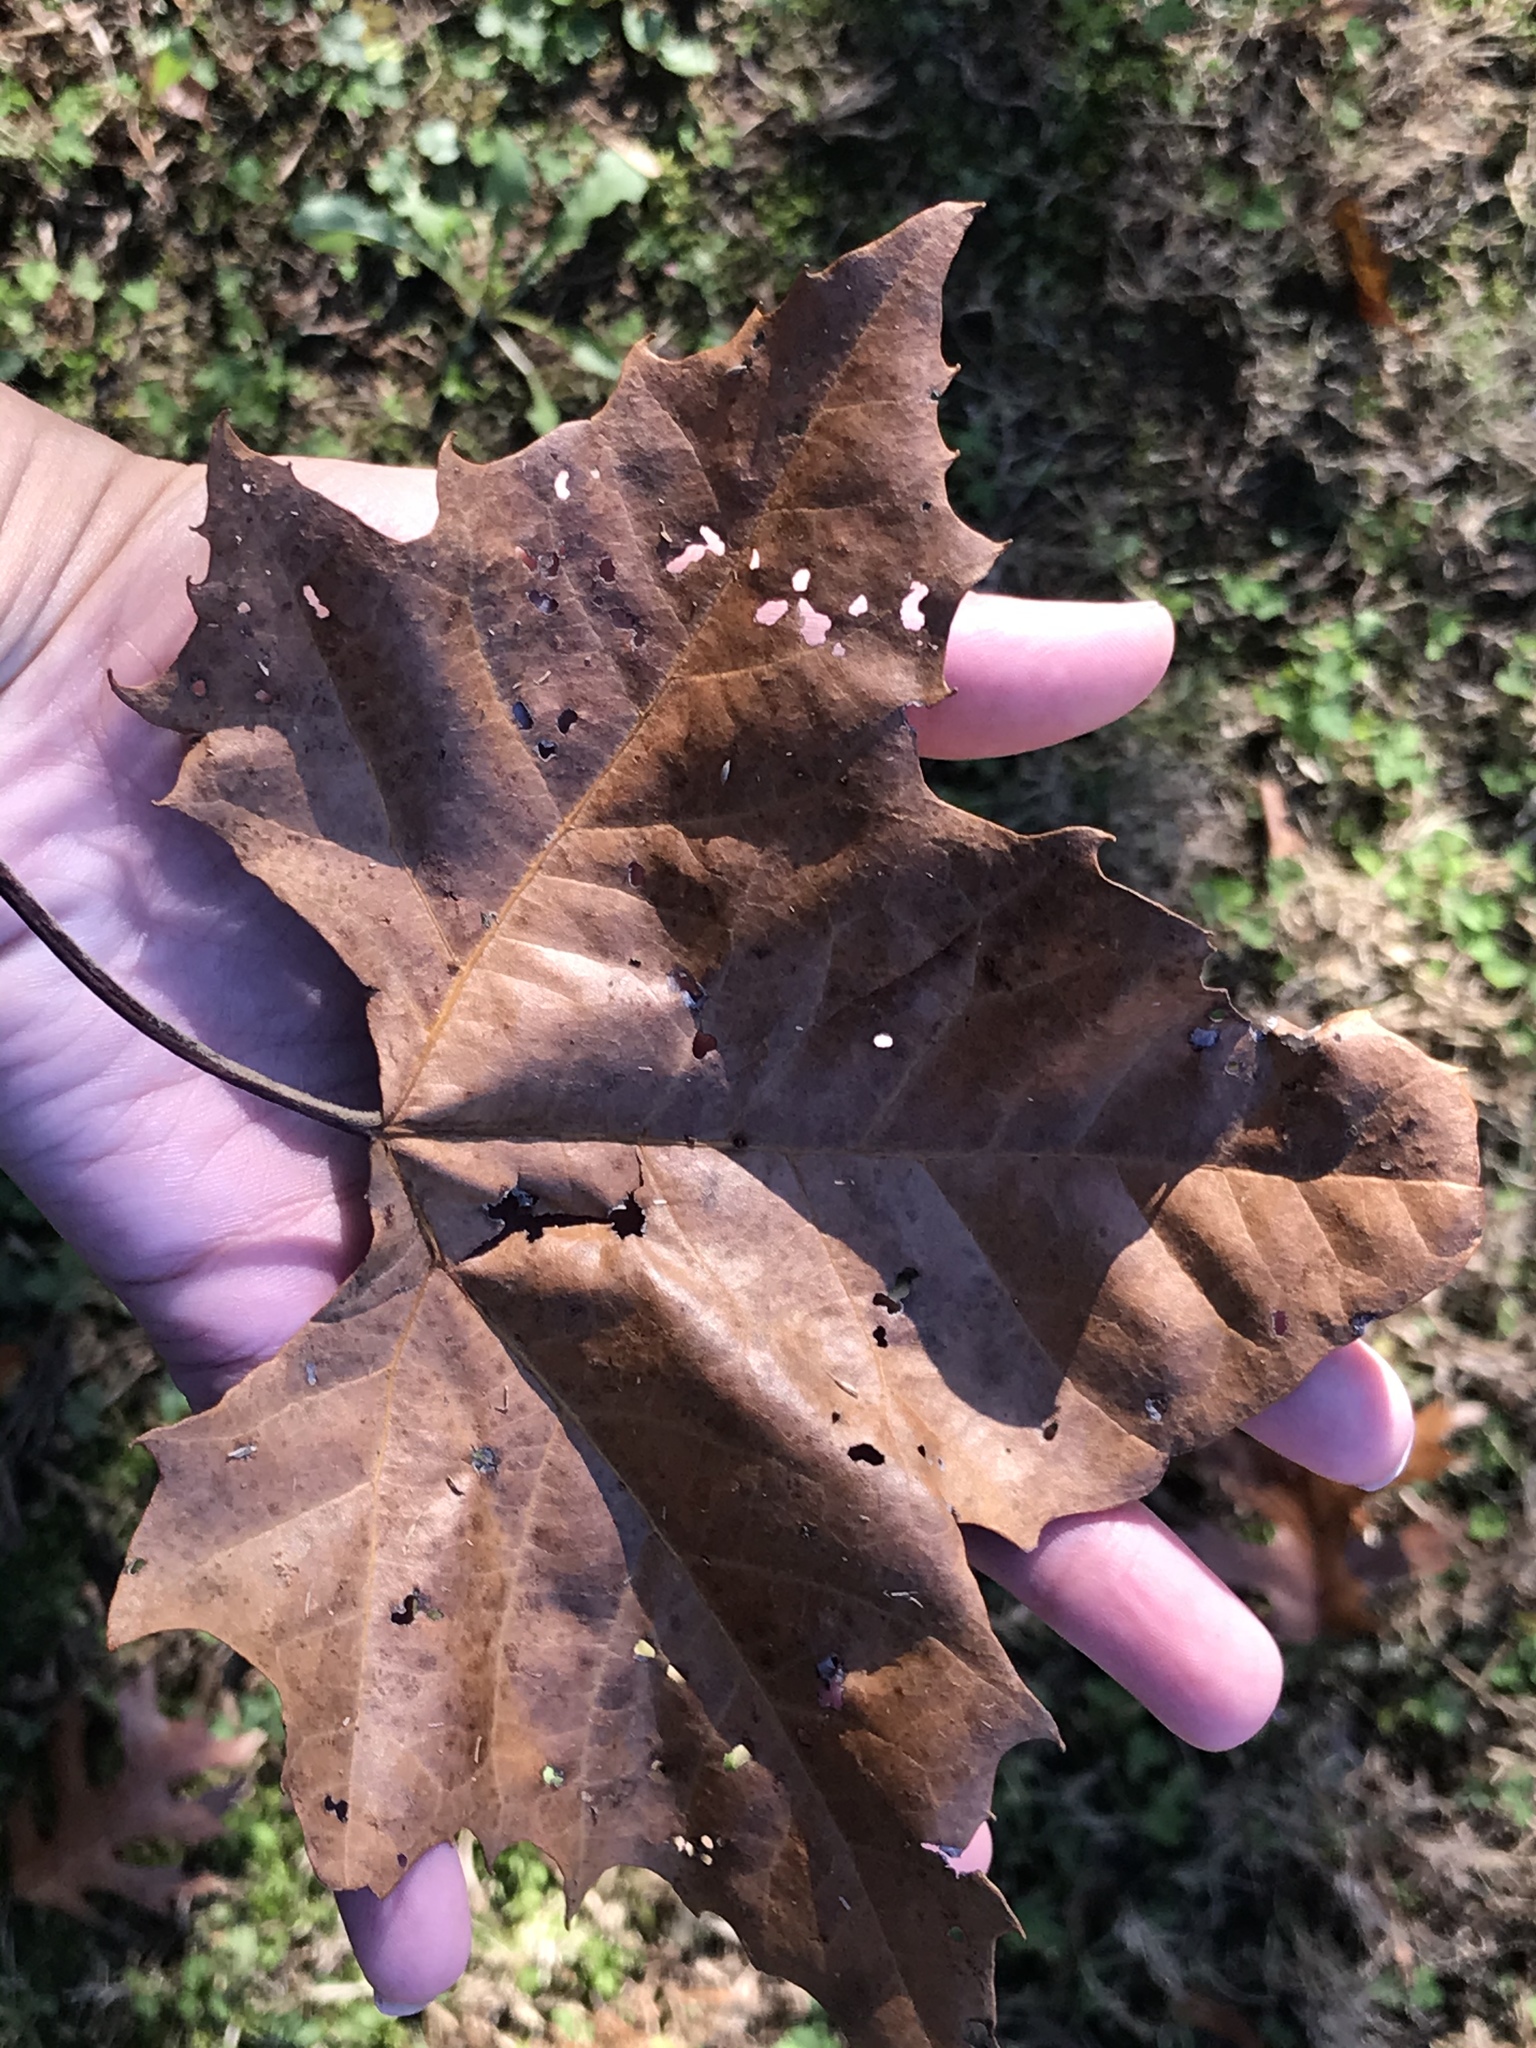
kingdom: Plantae
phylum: Tracheophyta
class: Magnoliopsida
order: Proteales
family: Platanaceae
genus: Platanus
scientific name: Platanus occidentalis
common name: American sycamore
